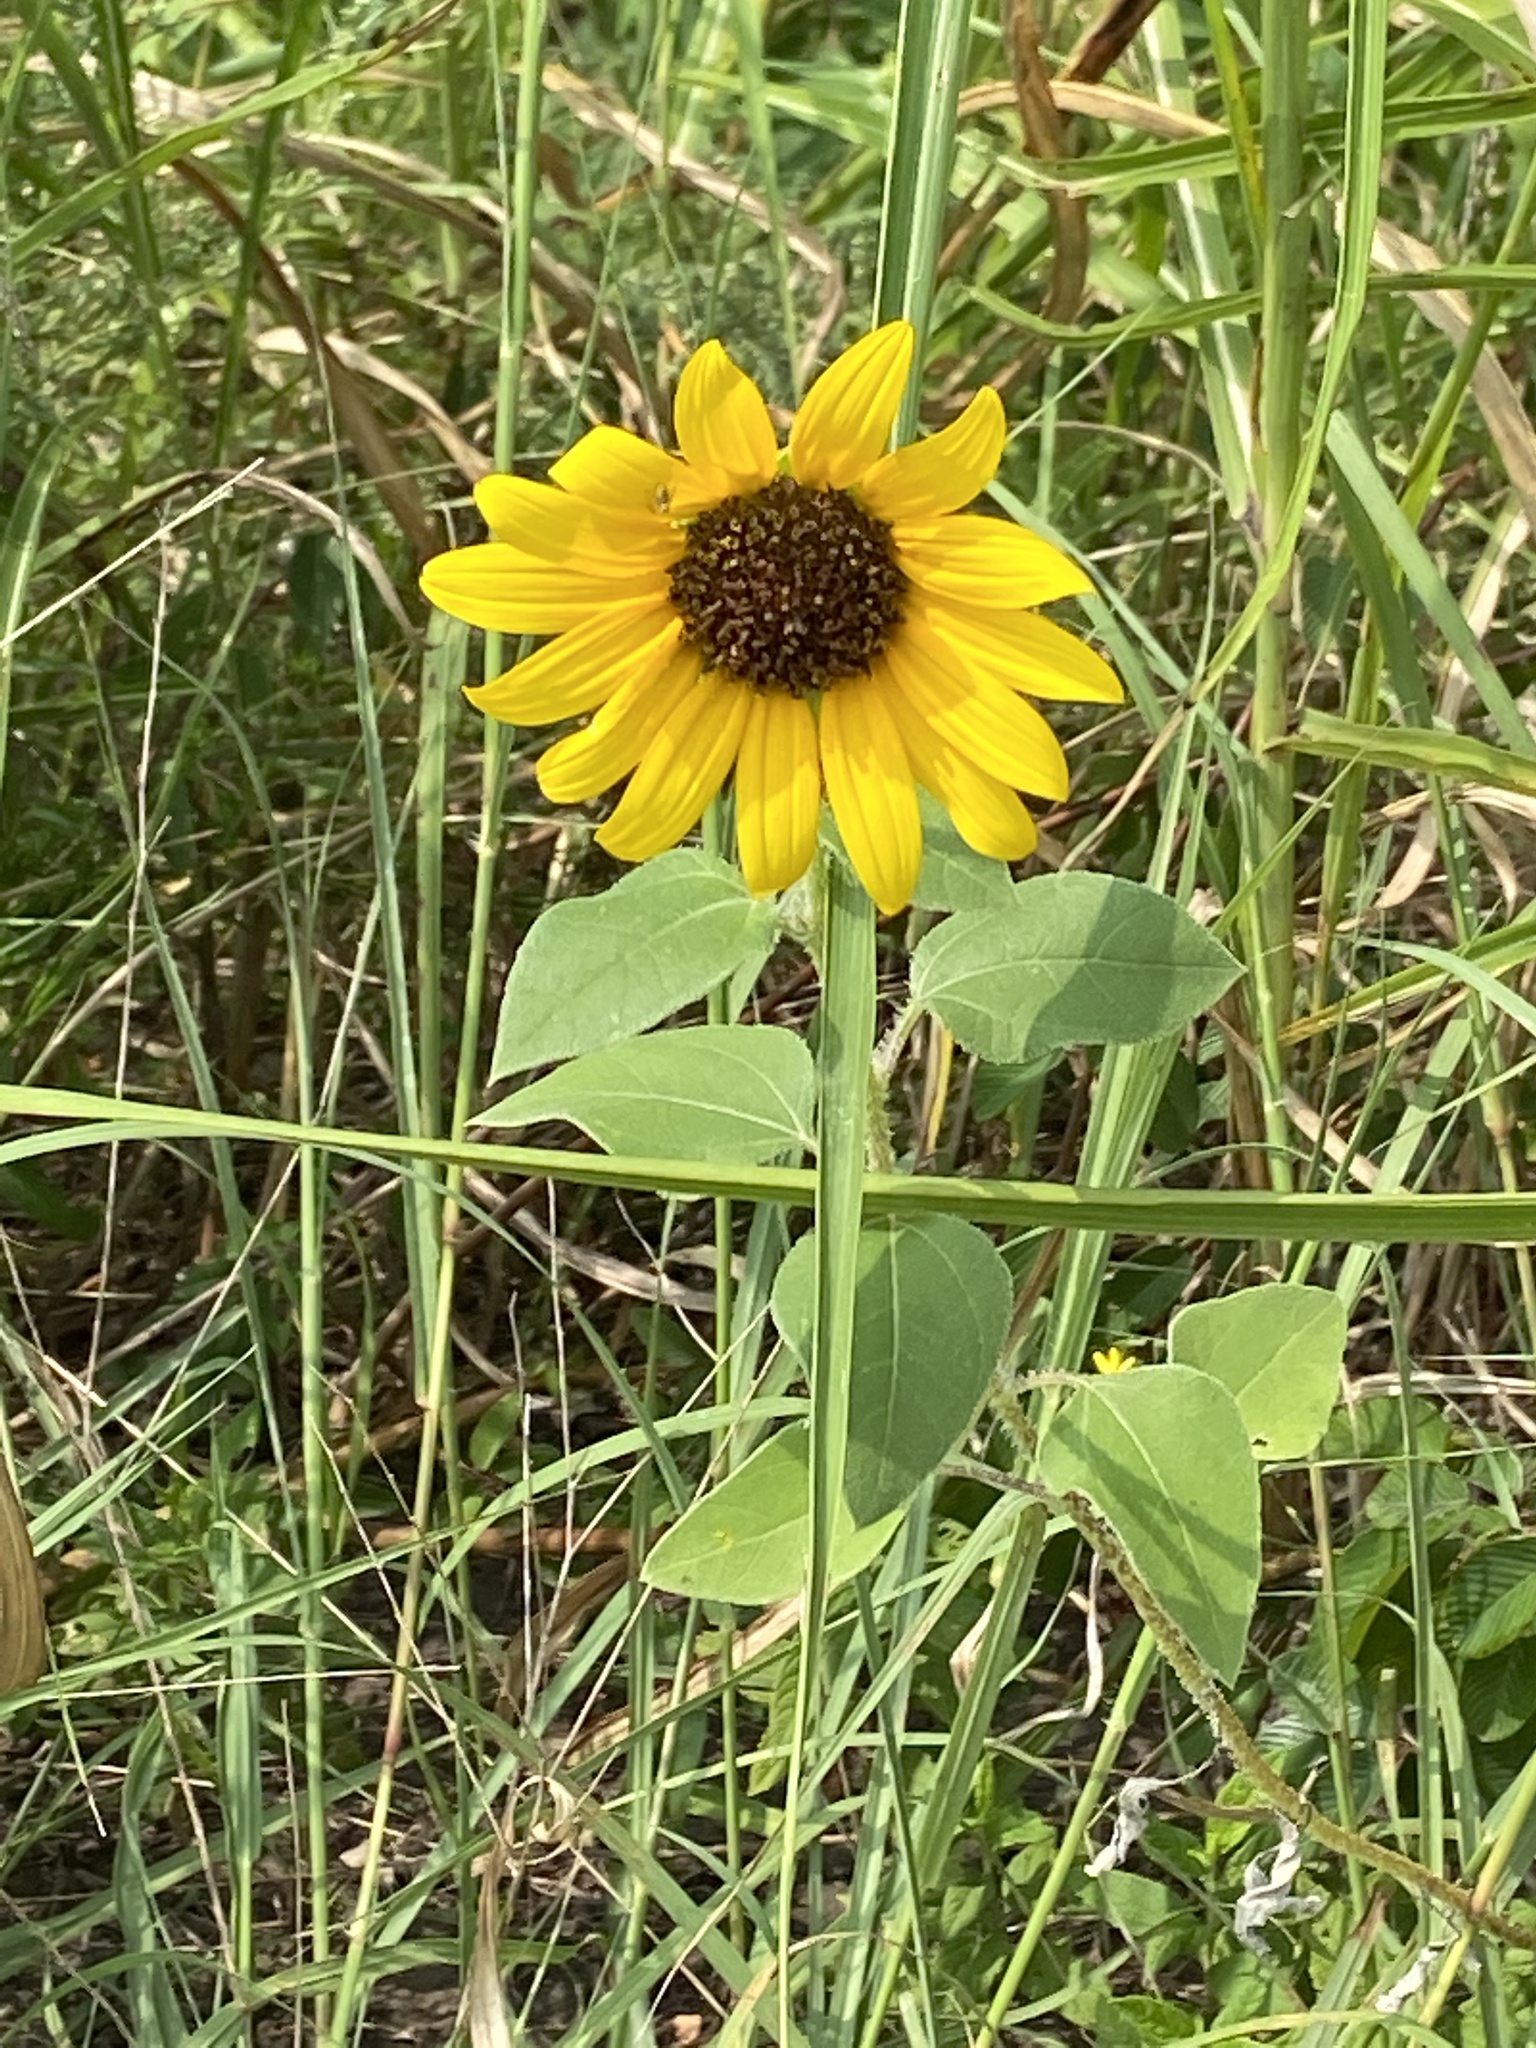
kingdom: Plantae
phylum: Tracheophyta
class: Magnoliopsida
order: Asterales
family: Asteraceae
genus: Helianthus
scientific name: Helianthus annuus
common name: Sunflower
